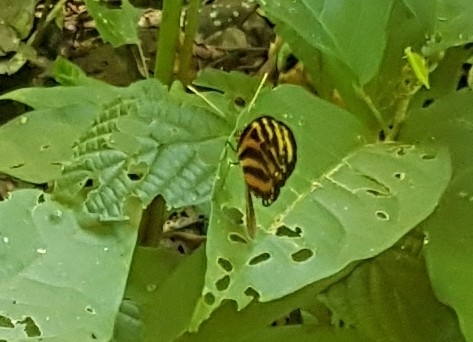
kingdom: Animalia
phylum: Arthropoda
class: Insecta
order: Lepidoptera
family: Nymphalidae
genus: Mechanitis
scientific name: Mechanitis lysimnia
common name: Lysimnia tigerwing
